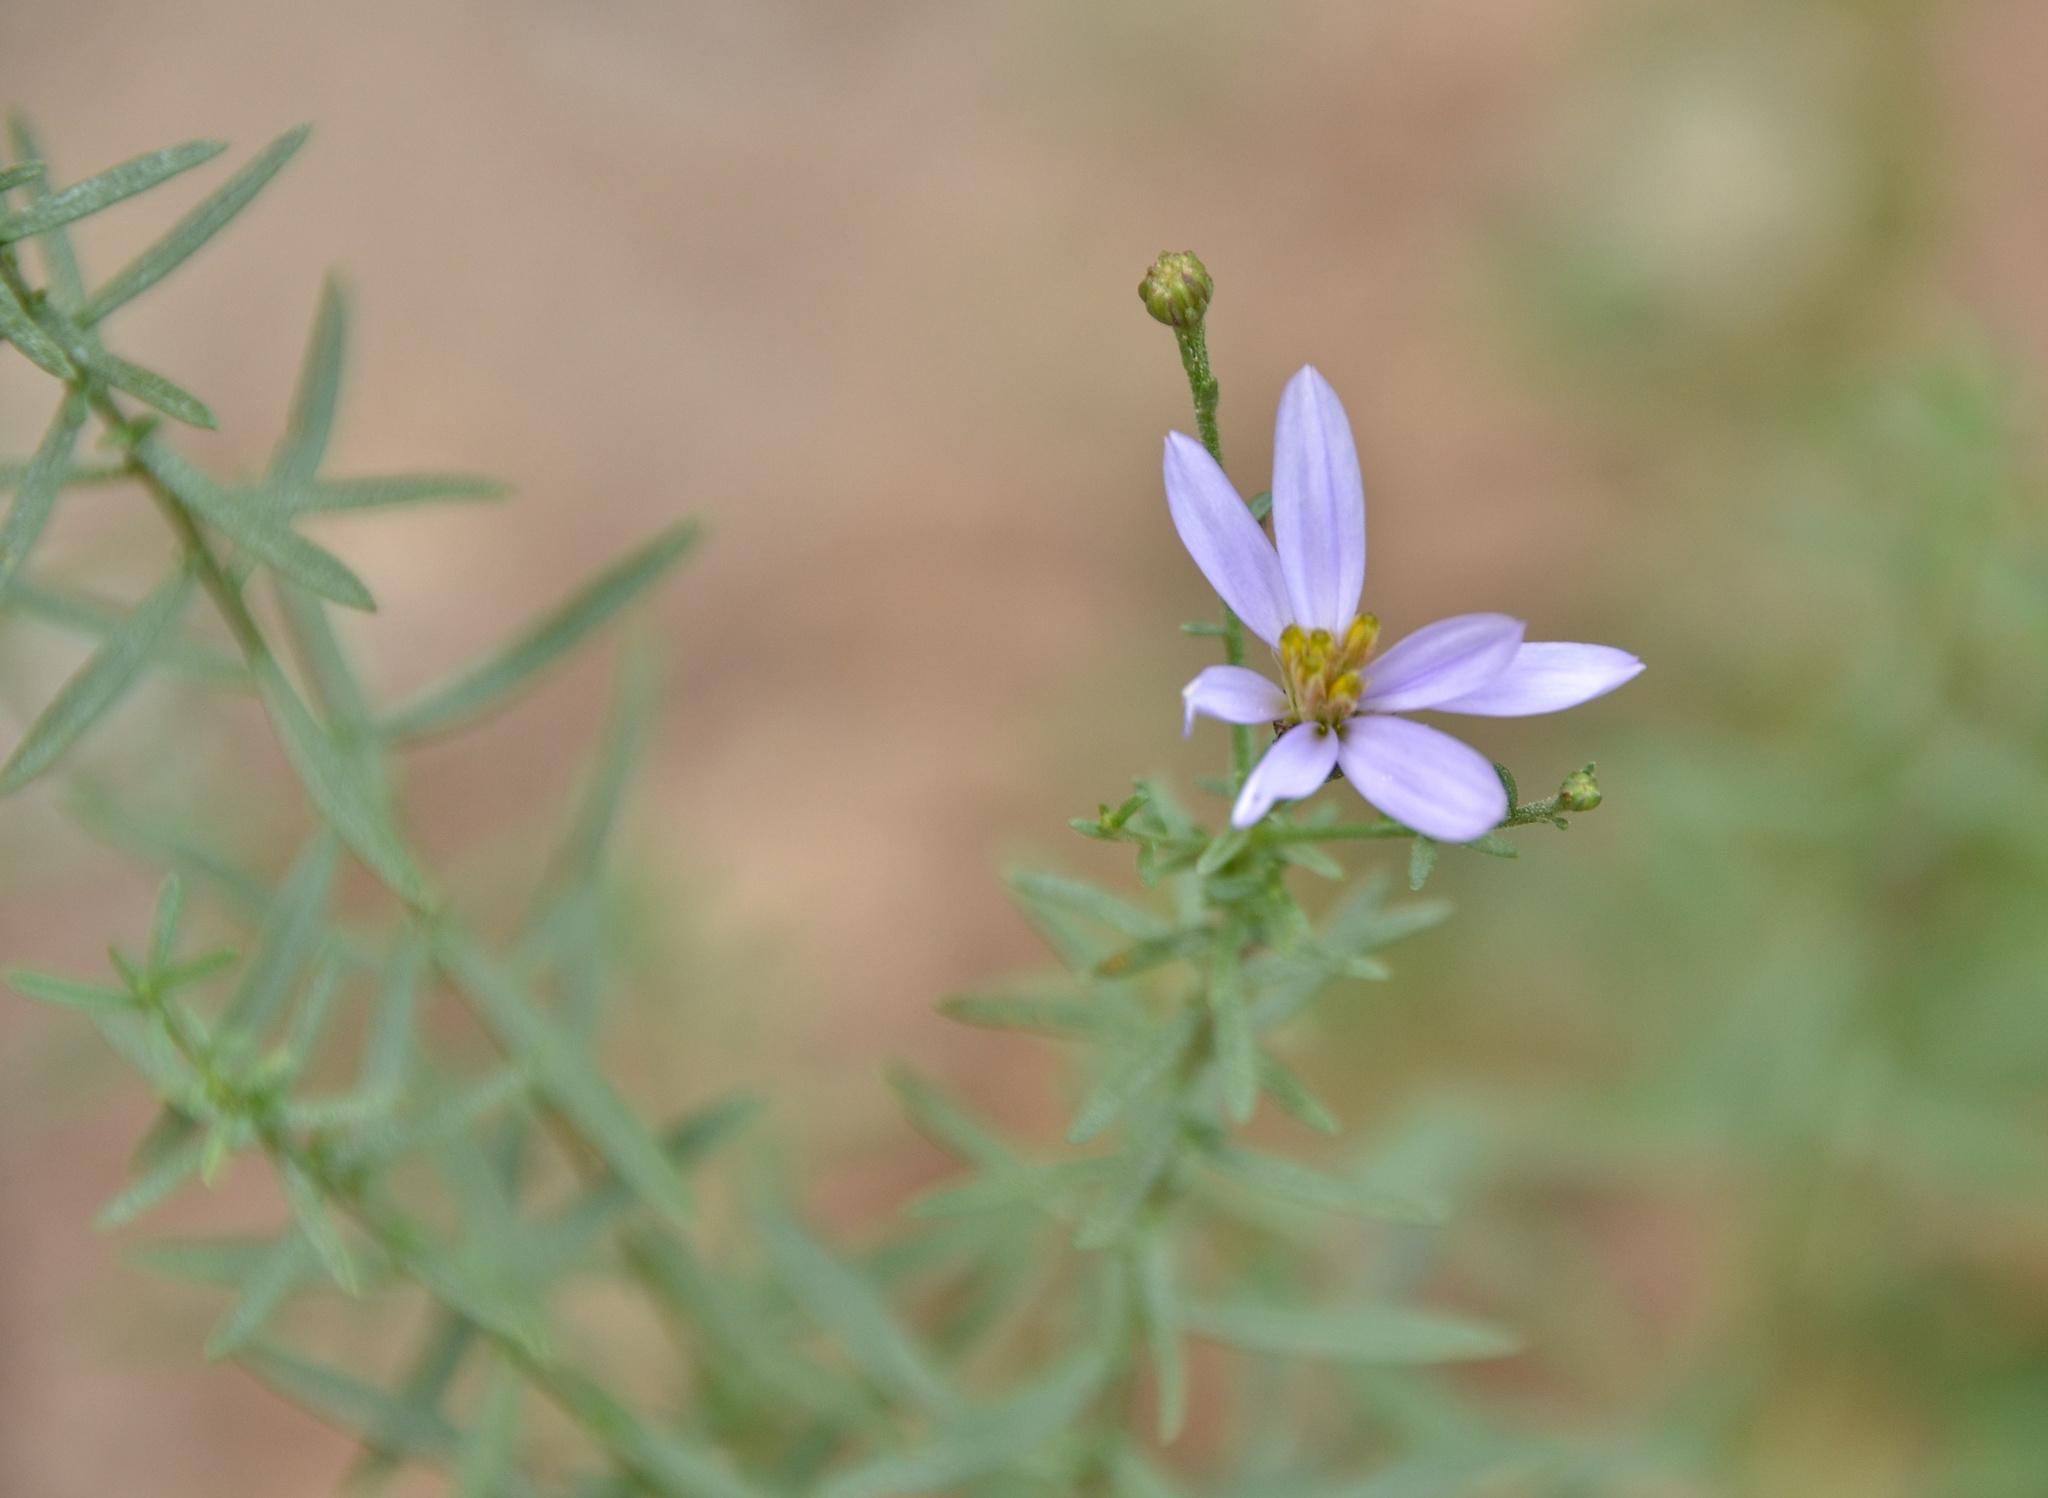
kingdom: Plantae
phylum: Tracheophyta
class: Magnoliopsida
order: Asterales
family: Asteraceae
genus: Galatella
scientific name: Galatella sedifolia
